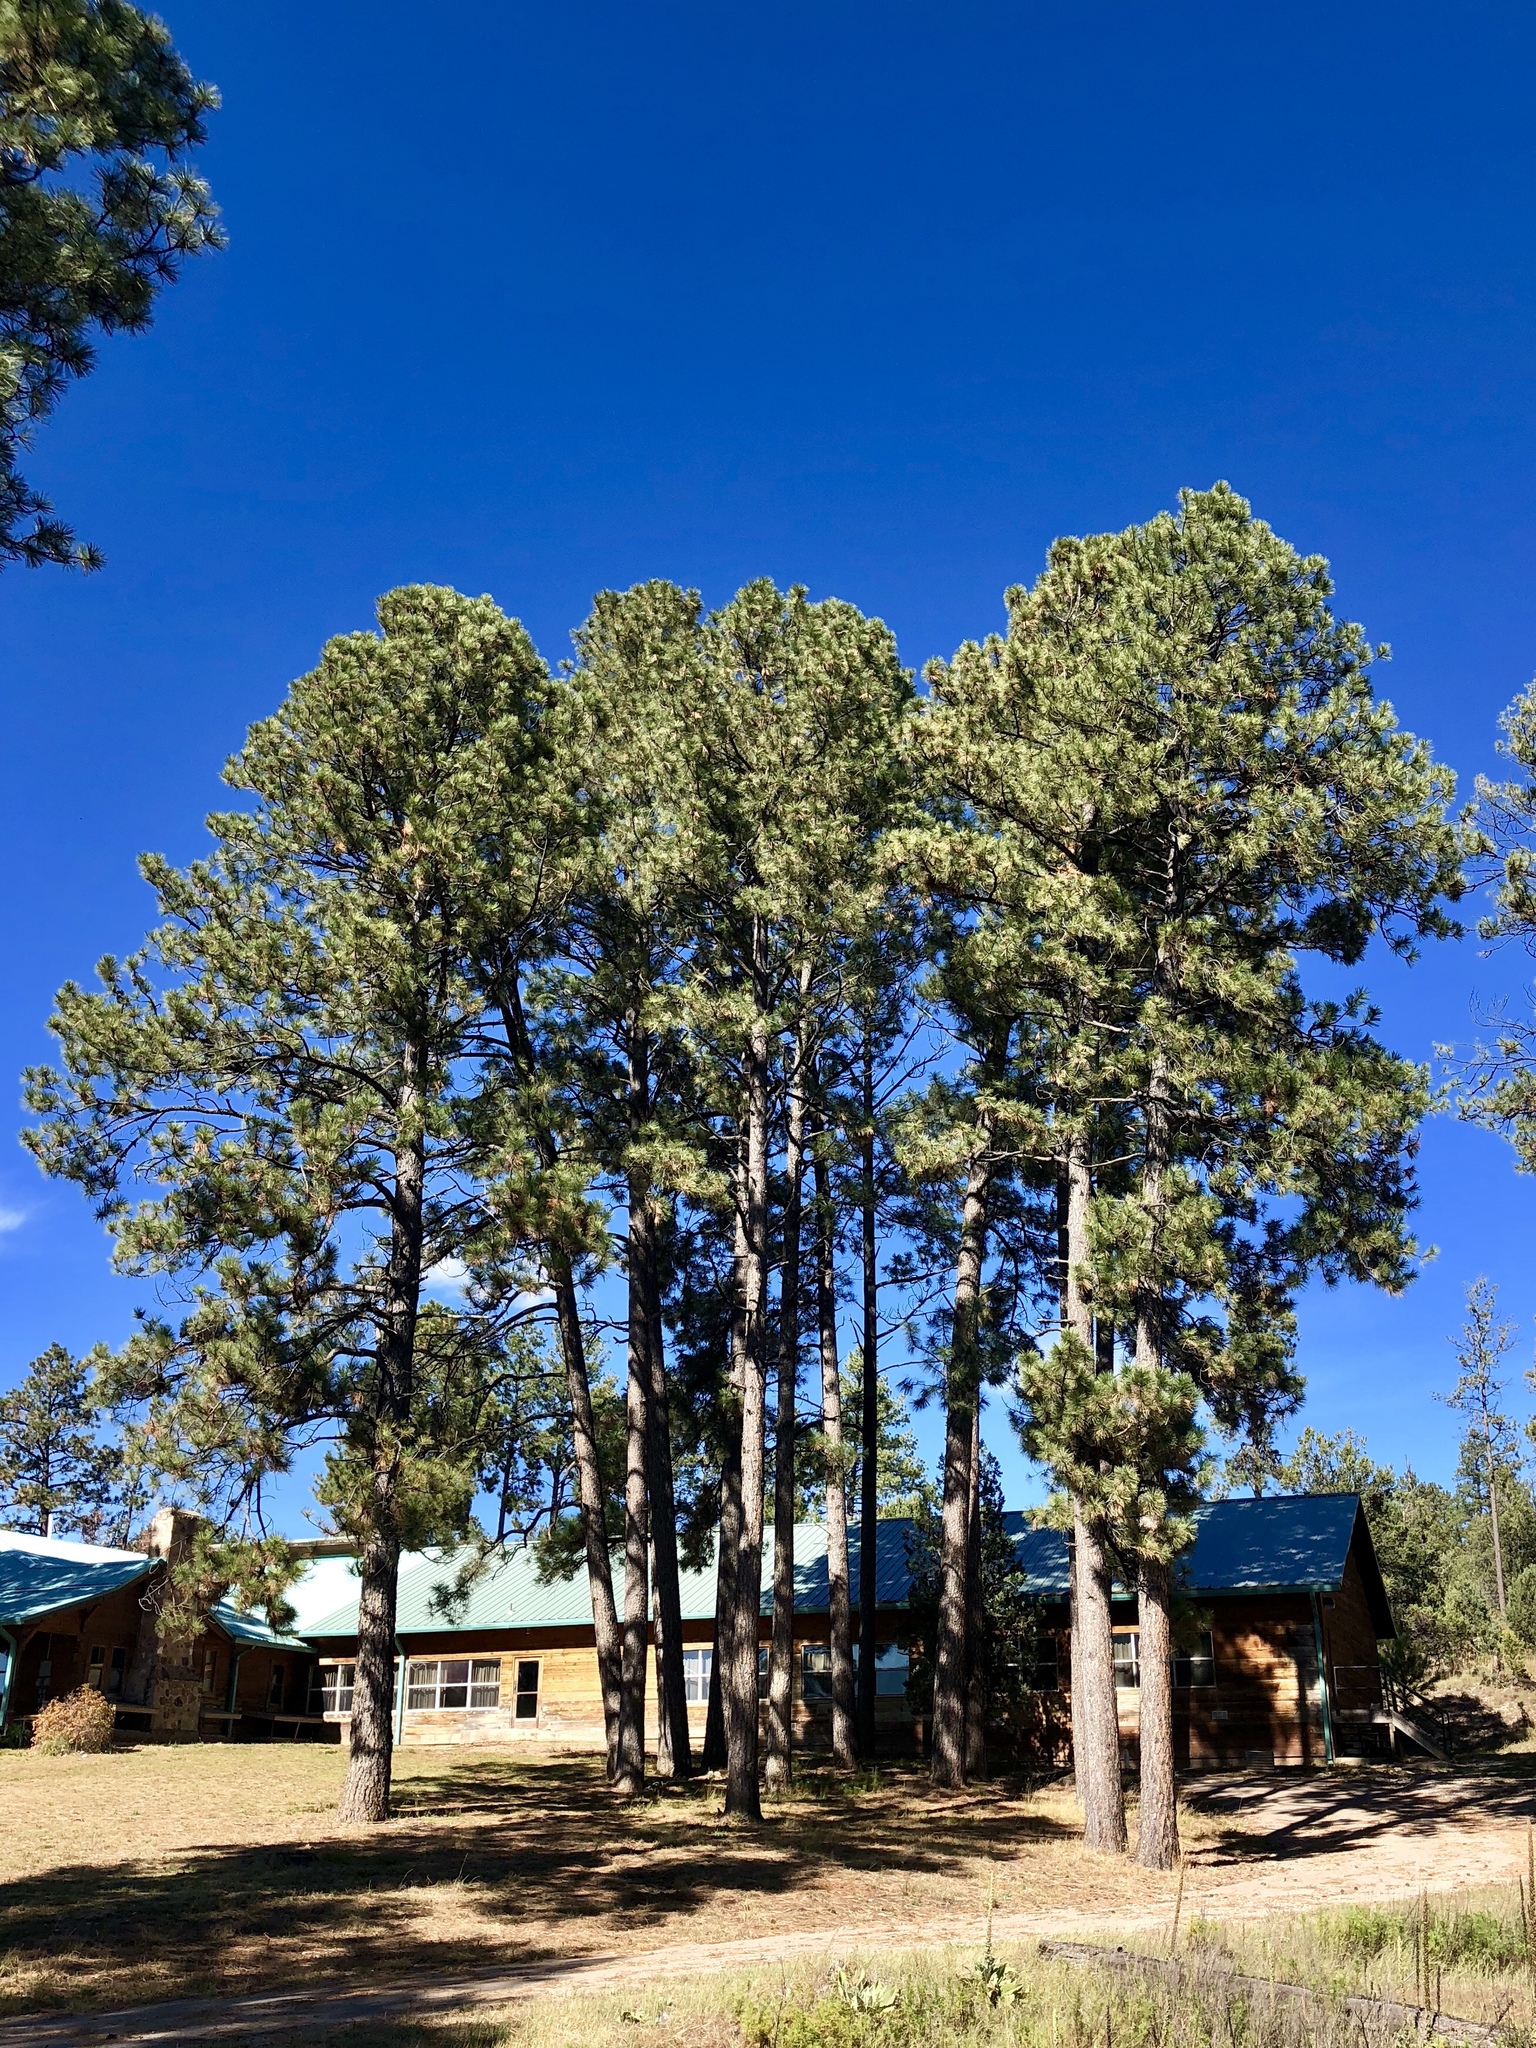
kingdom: Plantae
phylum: Tracheophyta
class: Pinopsida
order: Pinales
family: Pinaceae
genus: Pinus
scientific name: Pinus ponderosa
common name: Western yellow-pine
